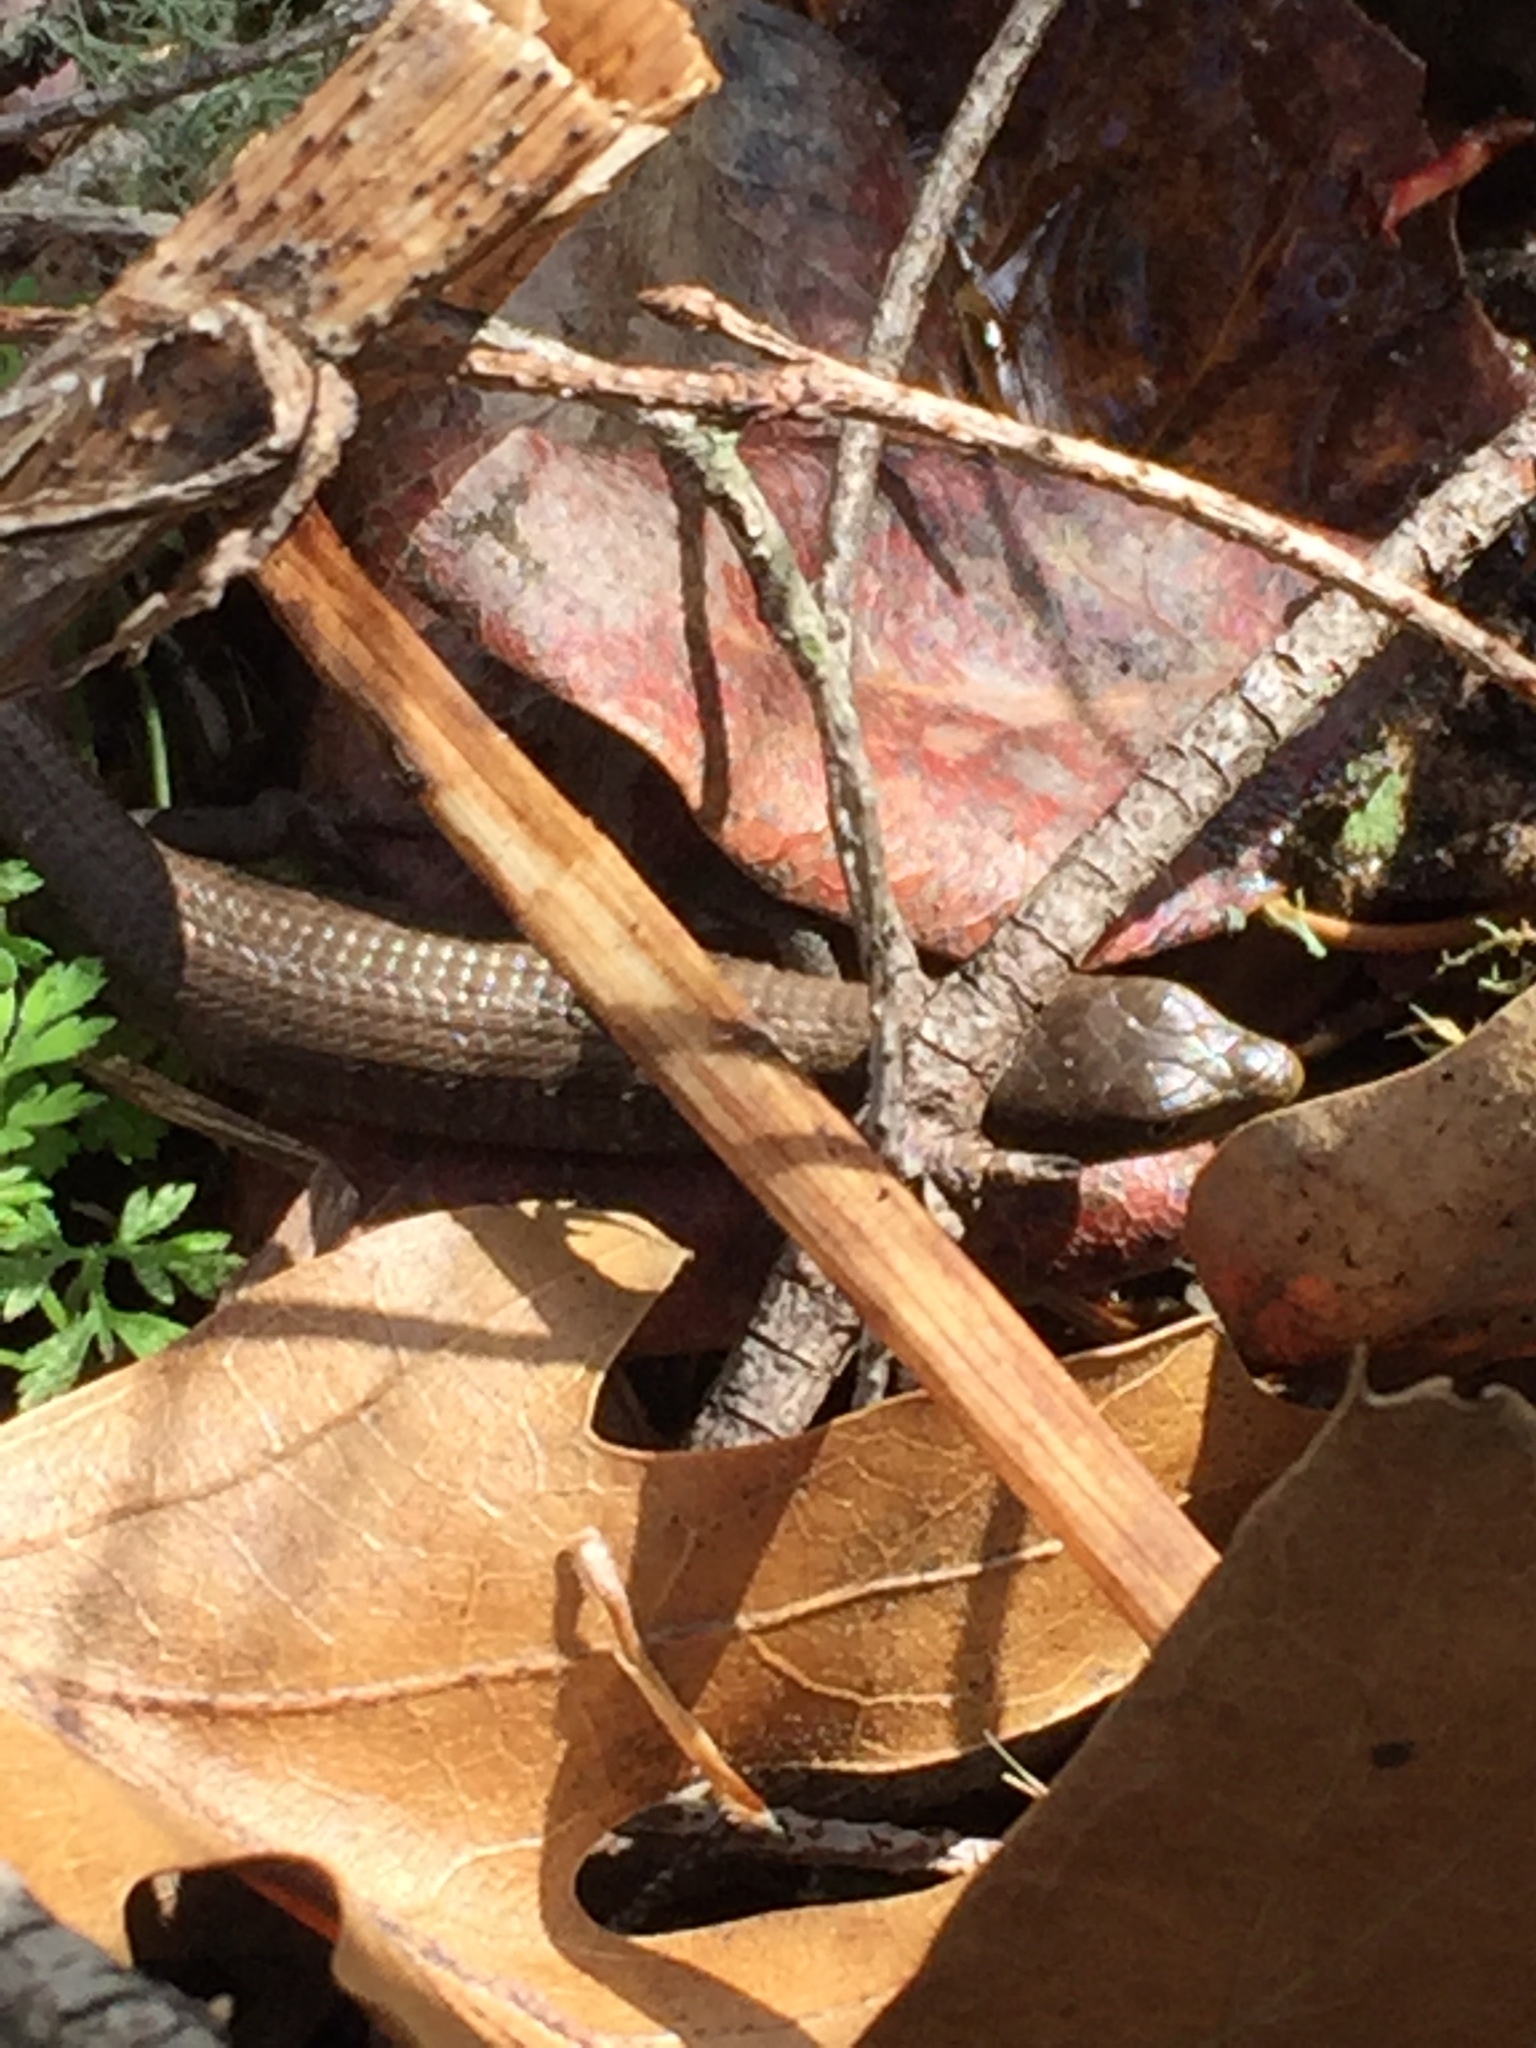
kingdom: Animalia
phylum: Chordata
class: Squamata
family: Anguidae
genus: Elgaria
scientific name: Elgaria multicarinata
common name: Southern alligator lizard
